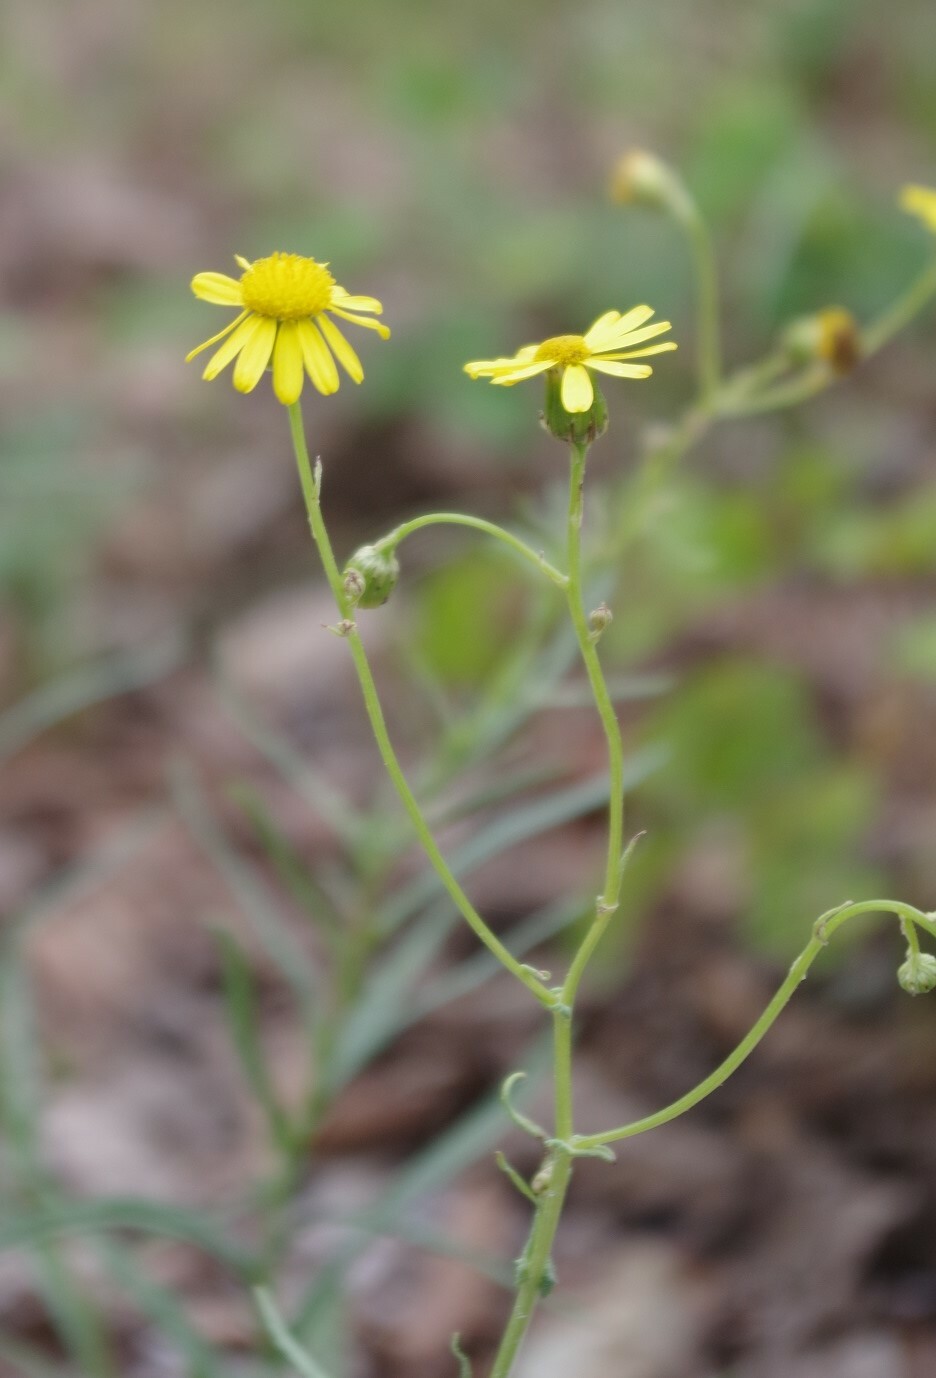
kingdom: Plantae
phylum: Tracheophyta
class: Magnoliopsida
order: Asterales
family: Asteraceae
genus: Senecio
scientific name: Senecio inaequidens
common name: Narrow-leaved ragwort
